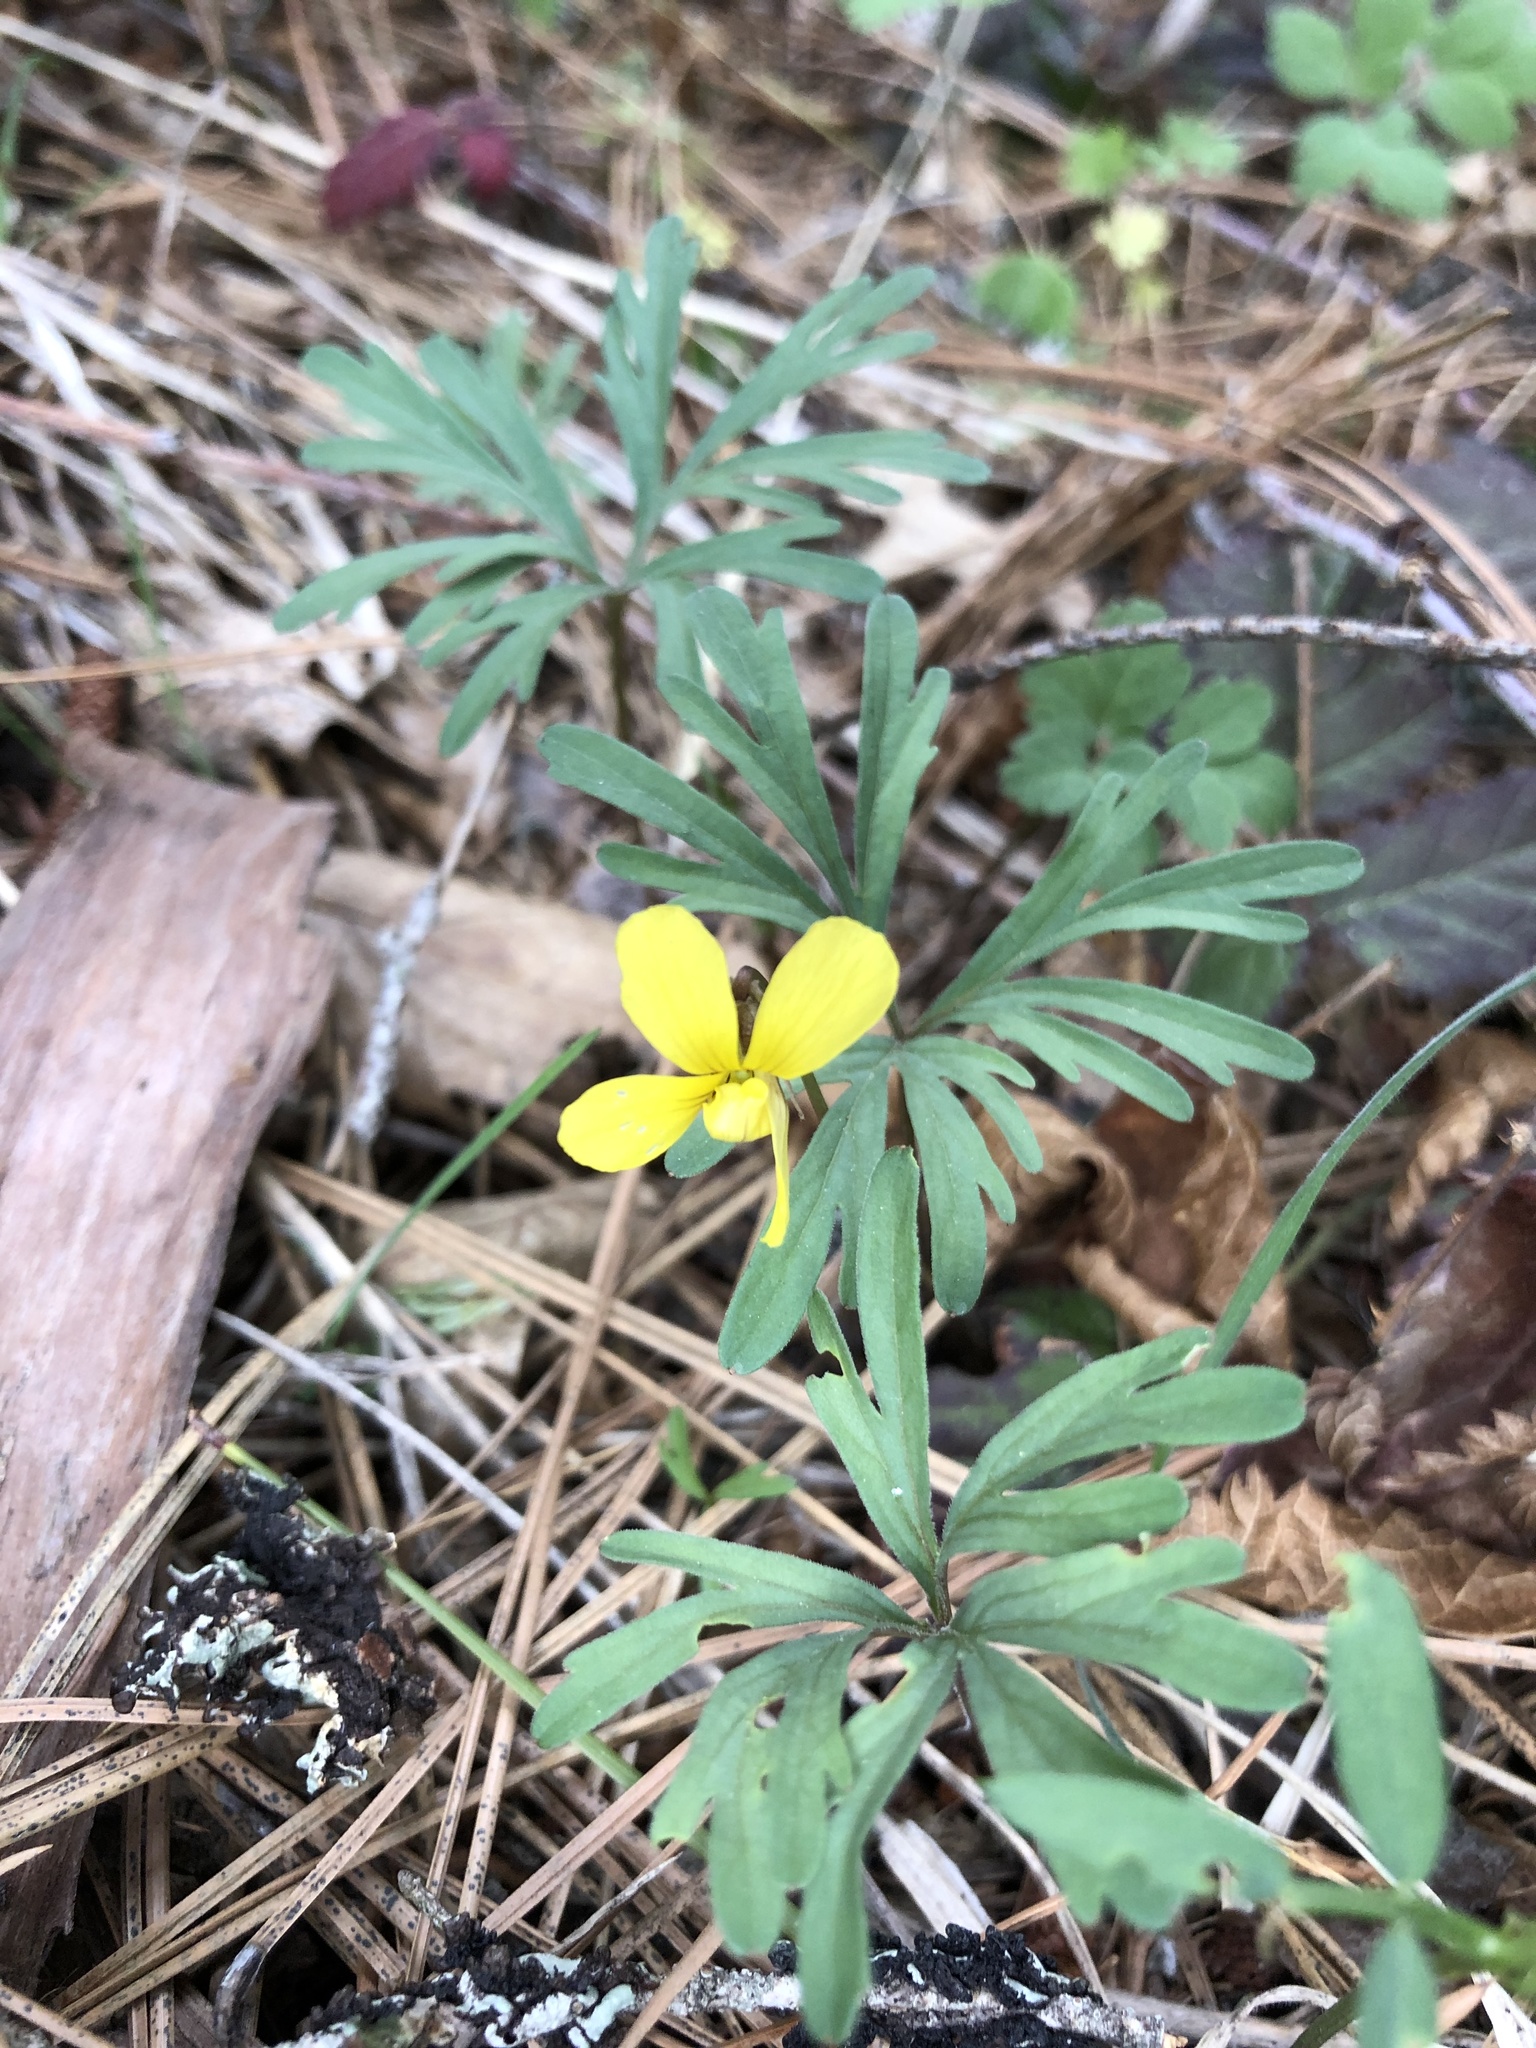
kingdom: Plantae
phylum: Tracheophyta
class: Magnoliopsida
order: Malpighiales
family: Violaceae
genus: Viola
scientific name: Viola sheltonii
